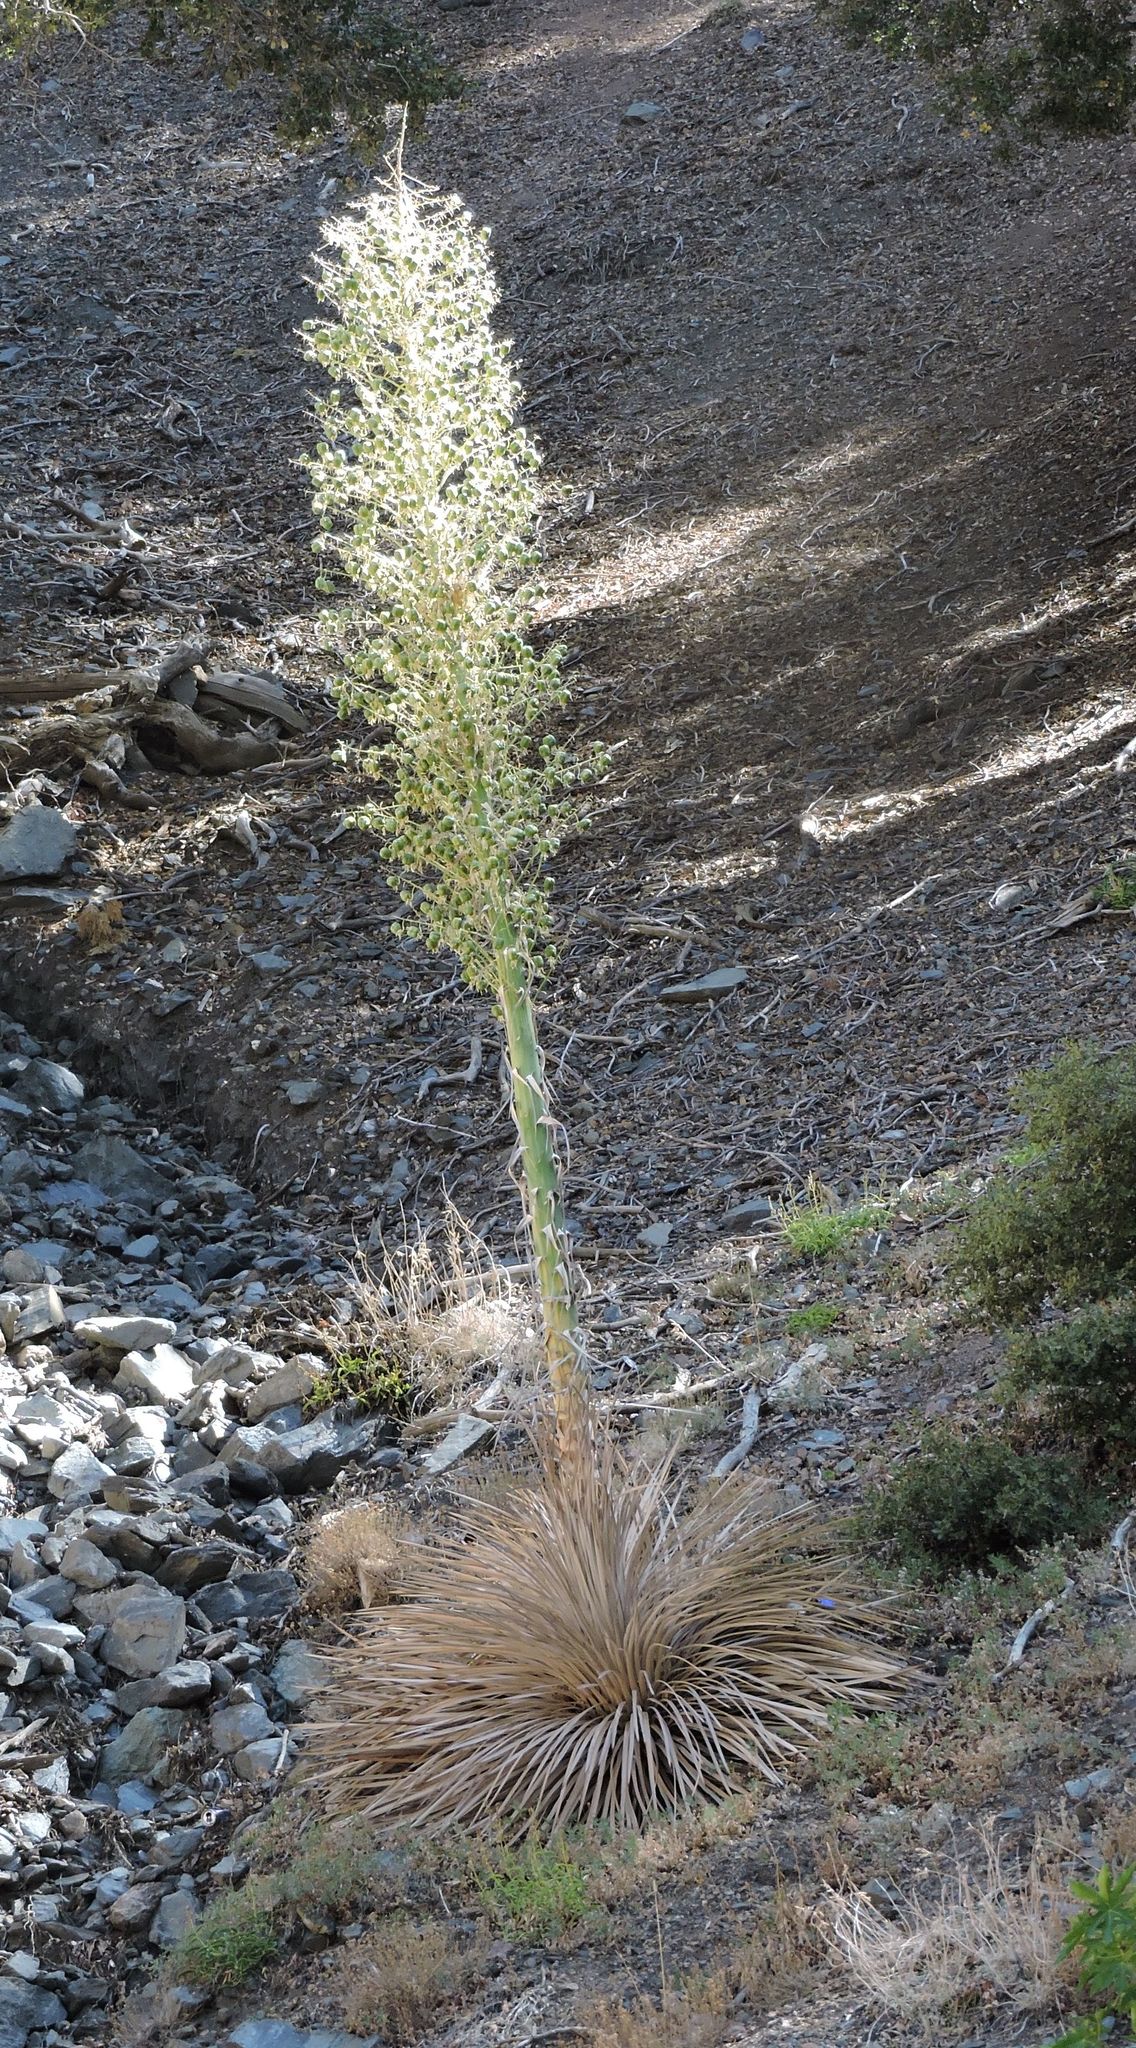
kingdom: Plantae
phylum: Tracheophyta
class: Liliopsida
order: Asparagales
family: Asparagaceae
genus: Hesperoyucca
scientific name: Hesperoyucca whipplei
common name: Our lord's-candle
